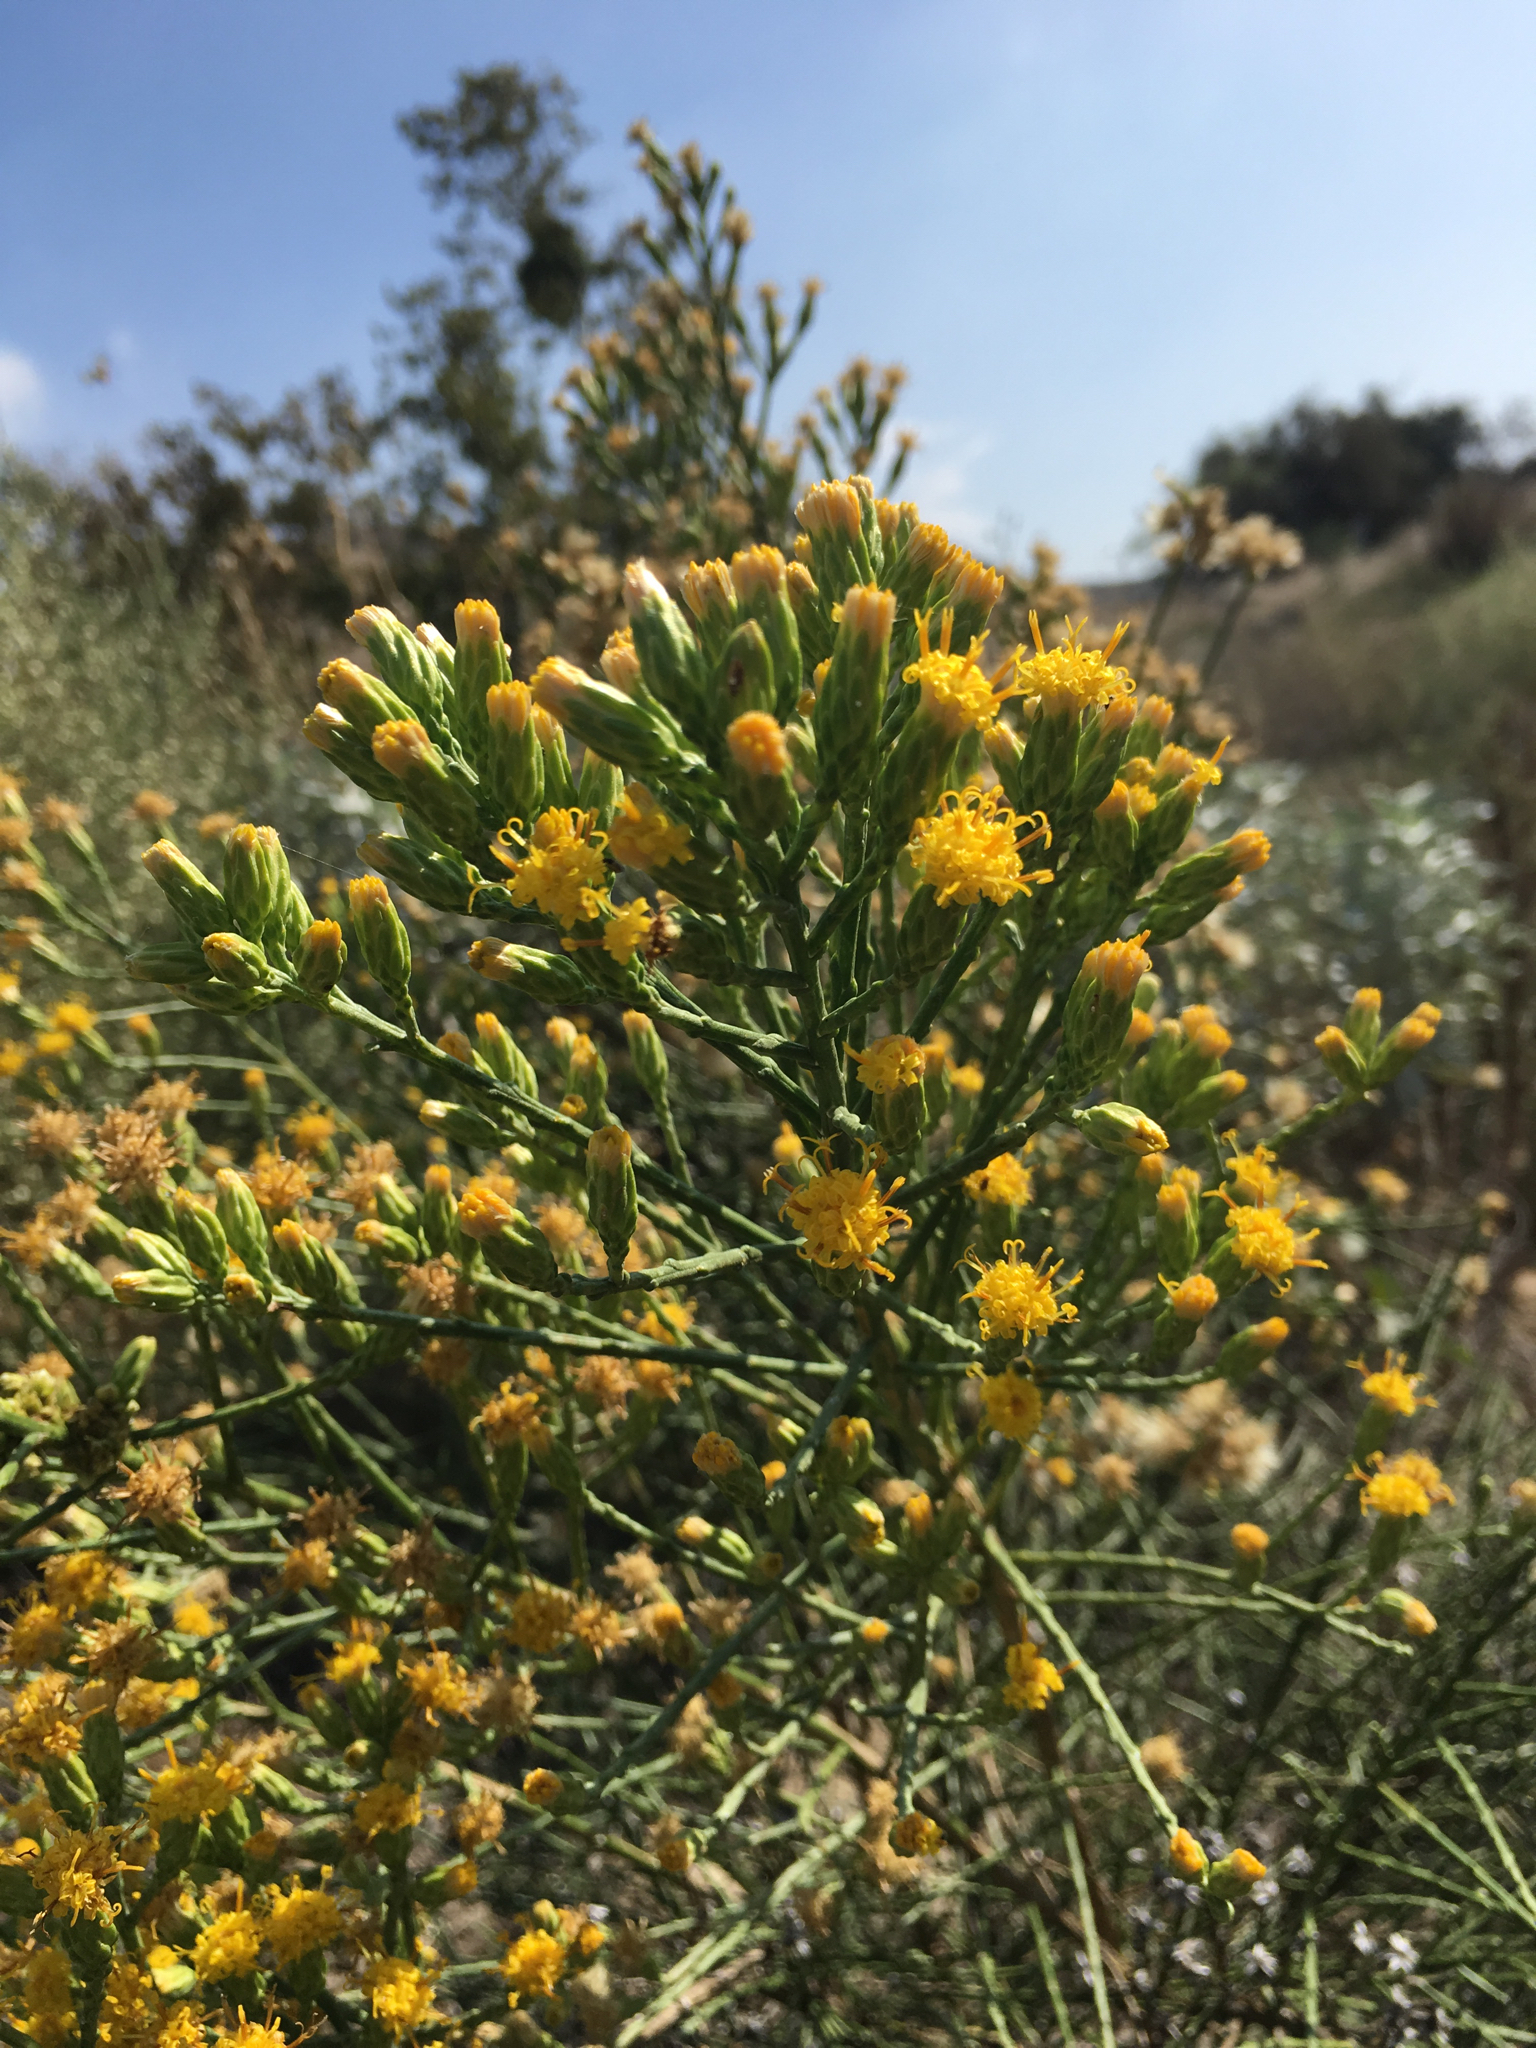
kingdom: Plantae
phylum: Tracheophyta
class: Magnoliopsida
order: Asterales
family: Asteraceae
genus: Lepidospartum
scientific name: Lepidospartum squamatum
